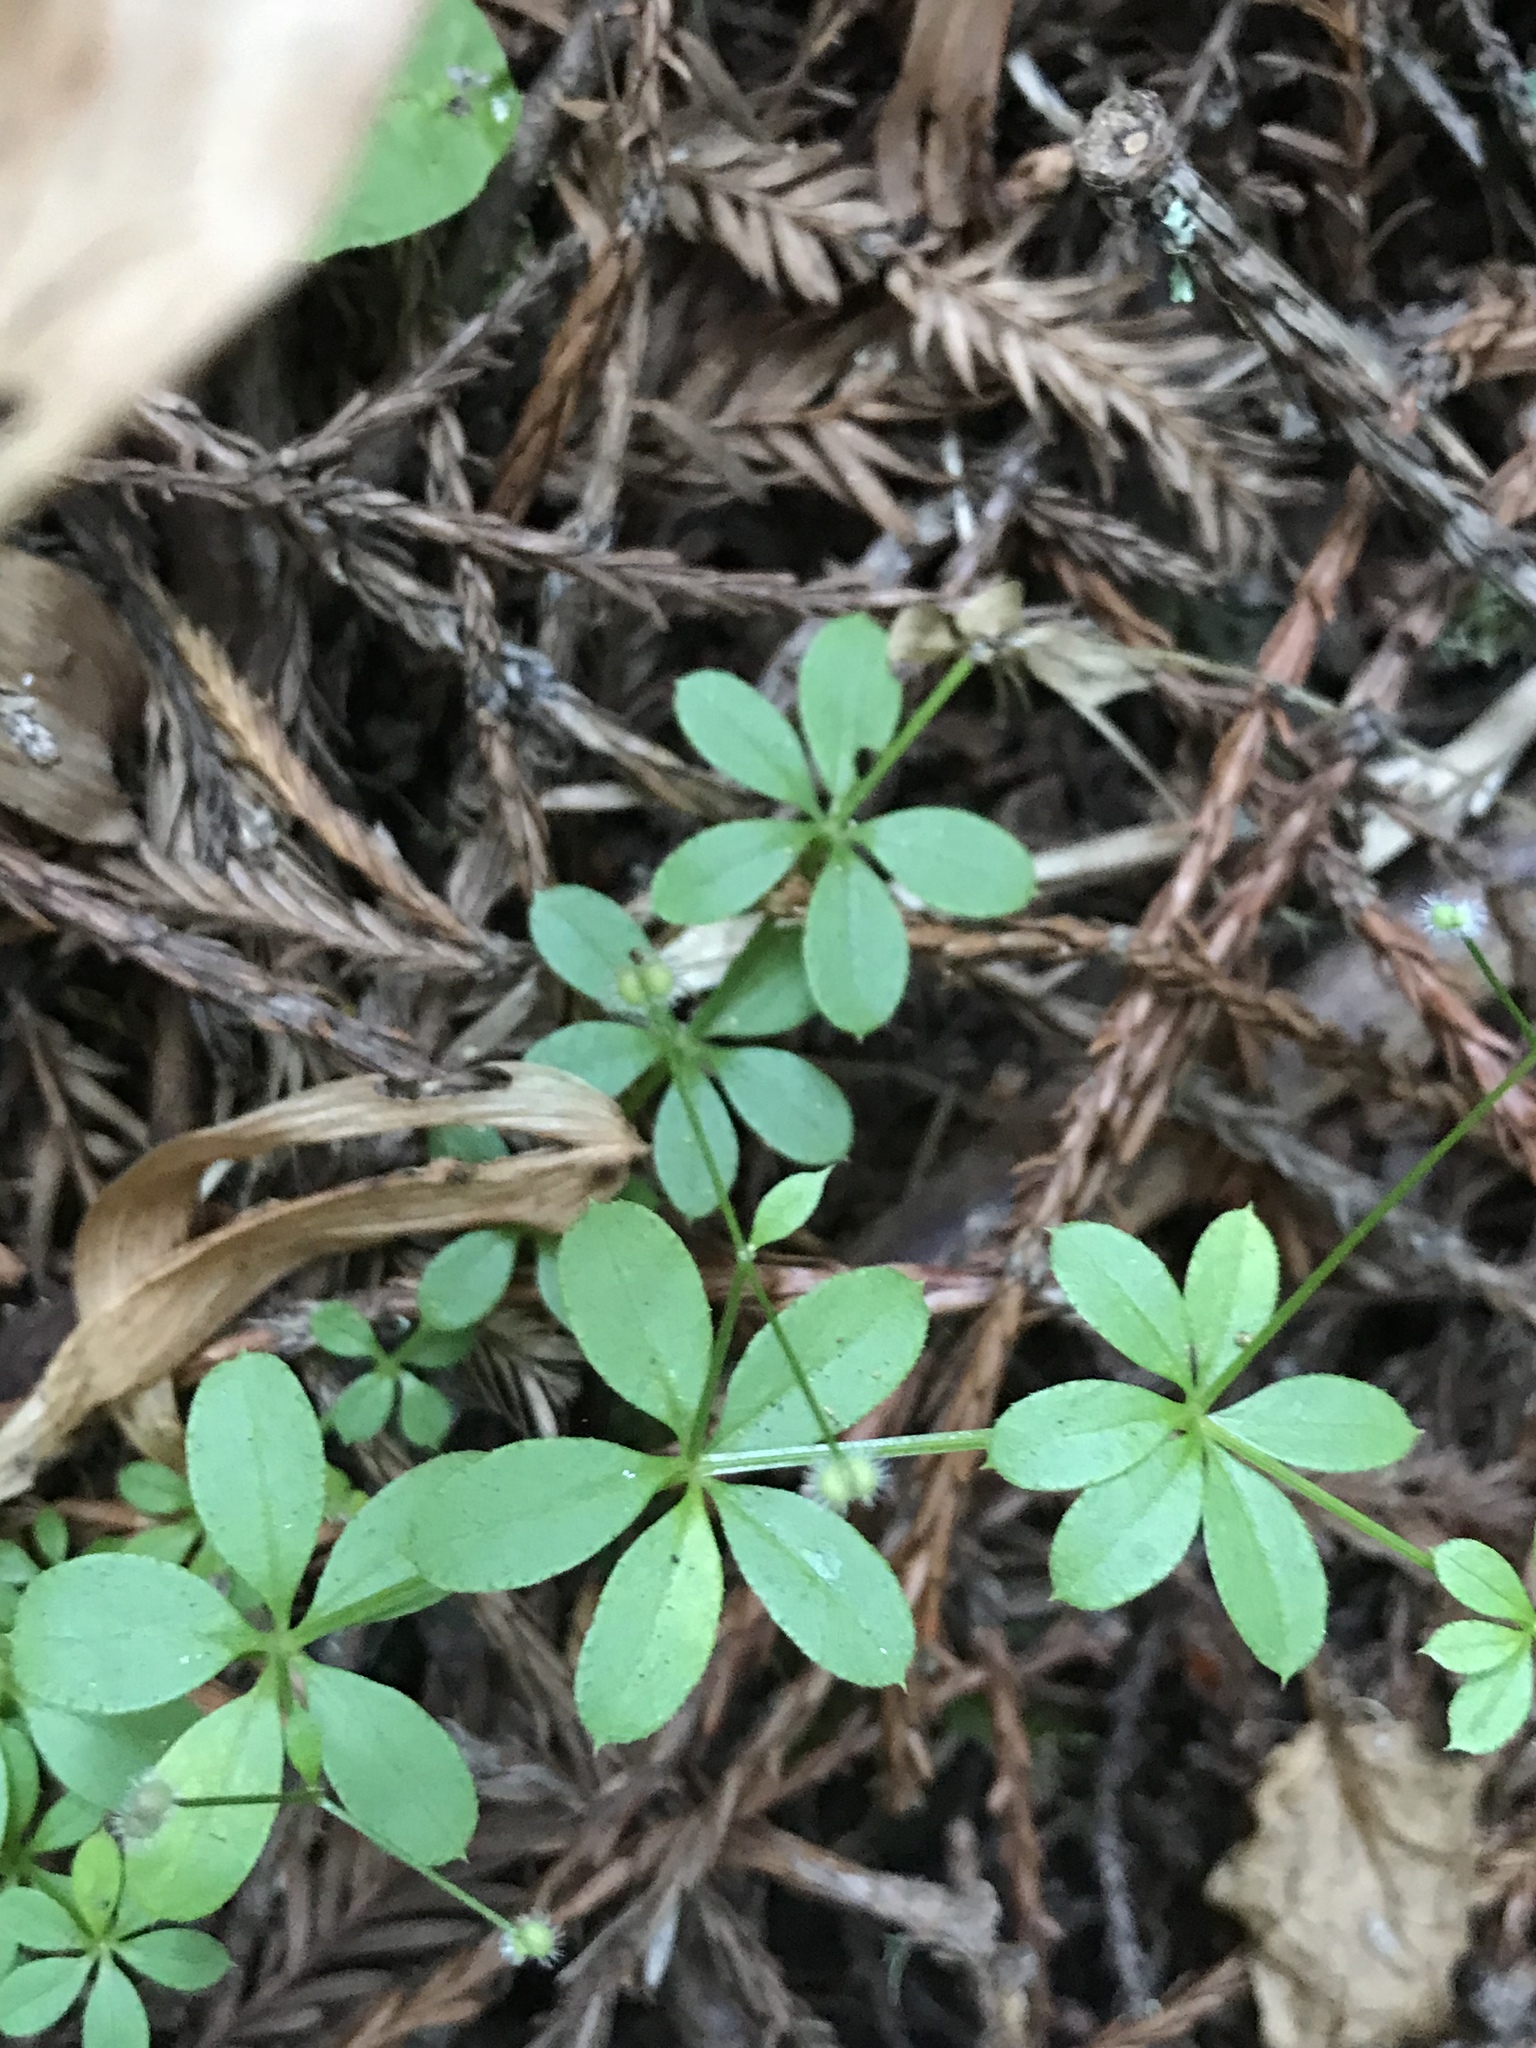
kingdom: Plantae
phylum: Tracheophyta
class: Magnoliopsida
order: Gentianales
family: Rubiaceae
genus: Galium
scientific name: Galium triflorum
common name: Fragrant bedstraw
